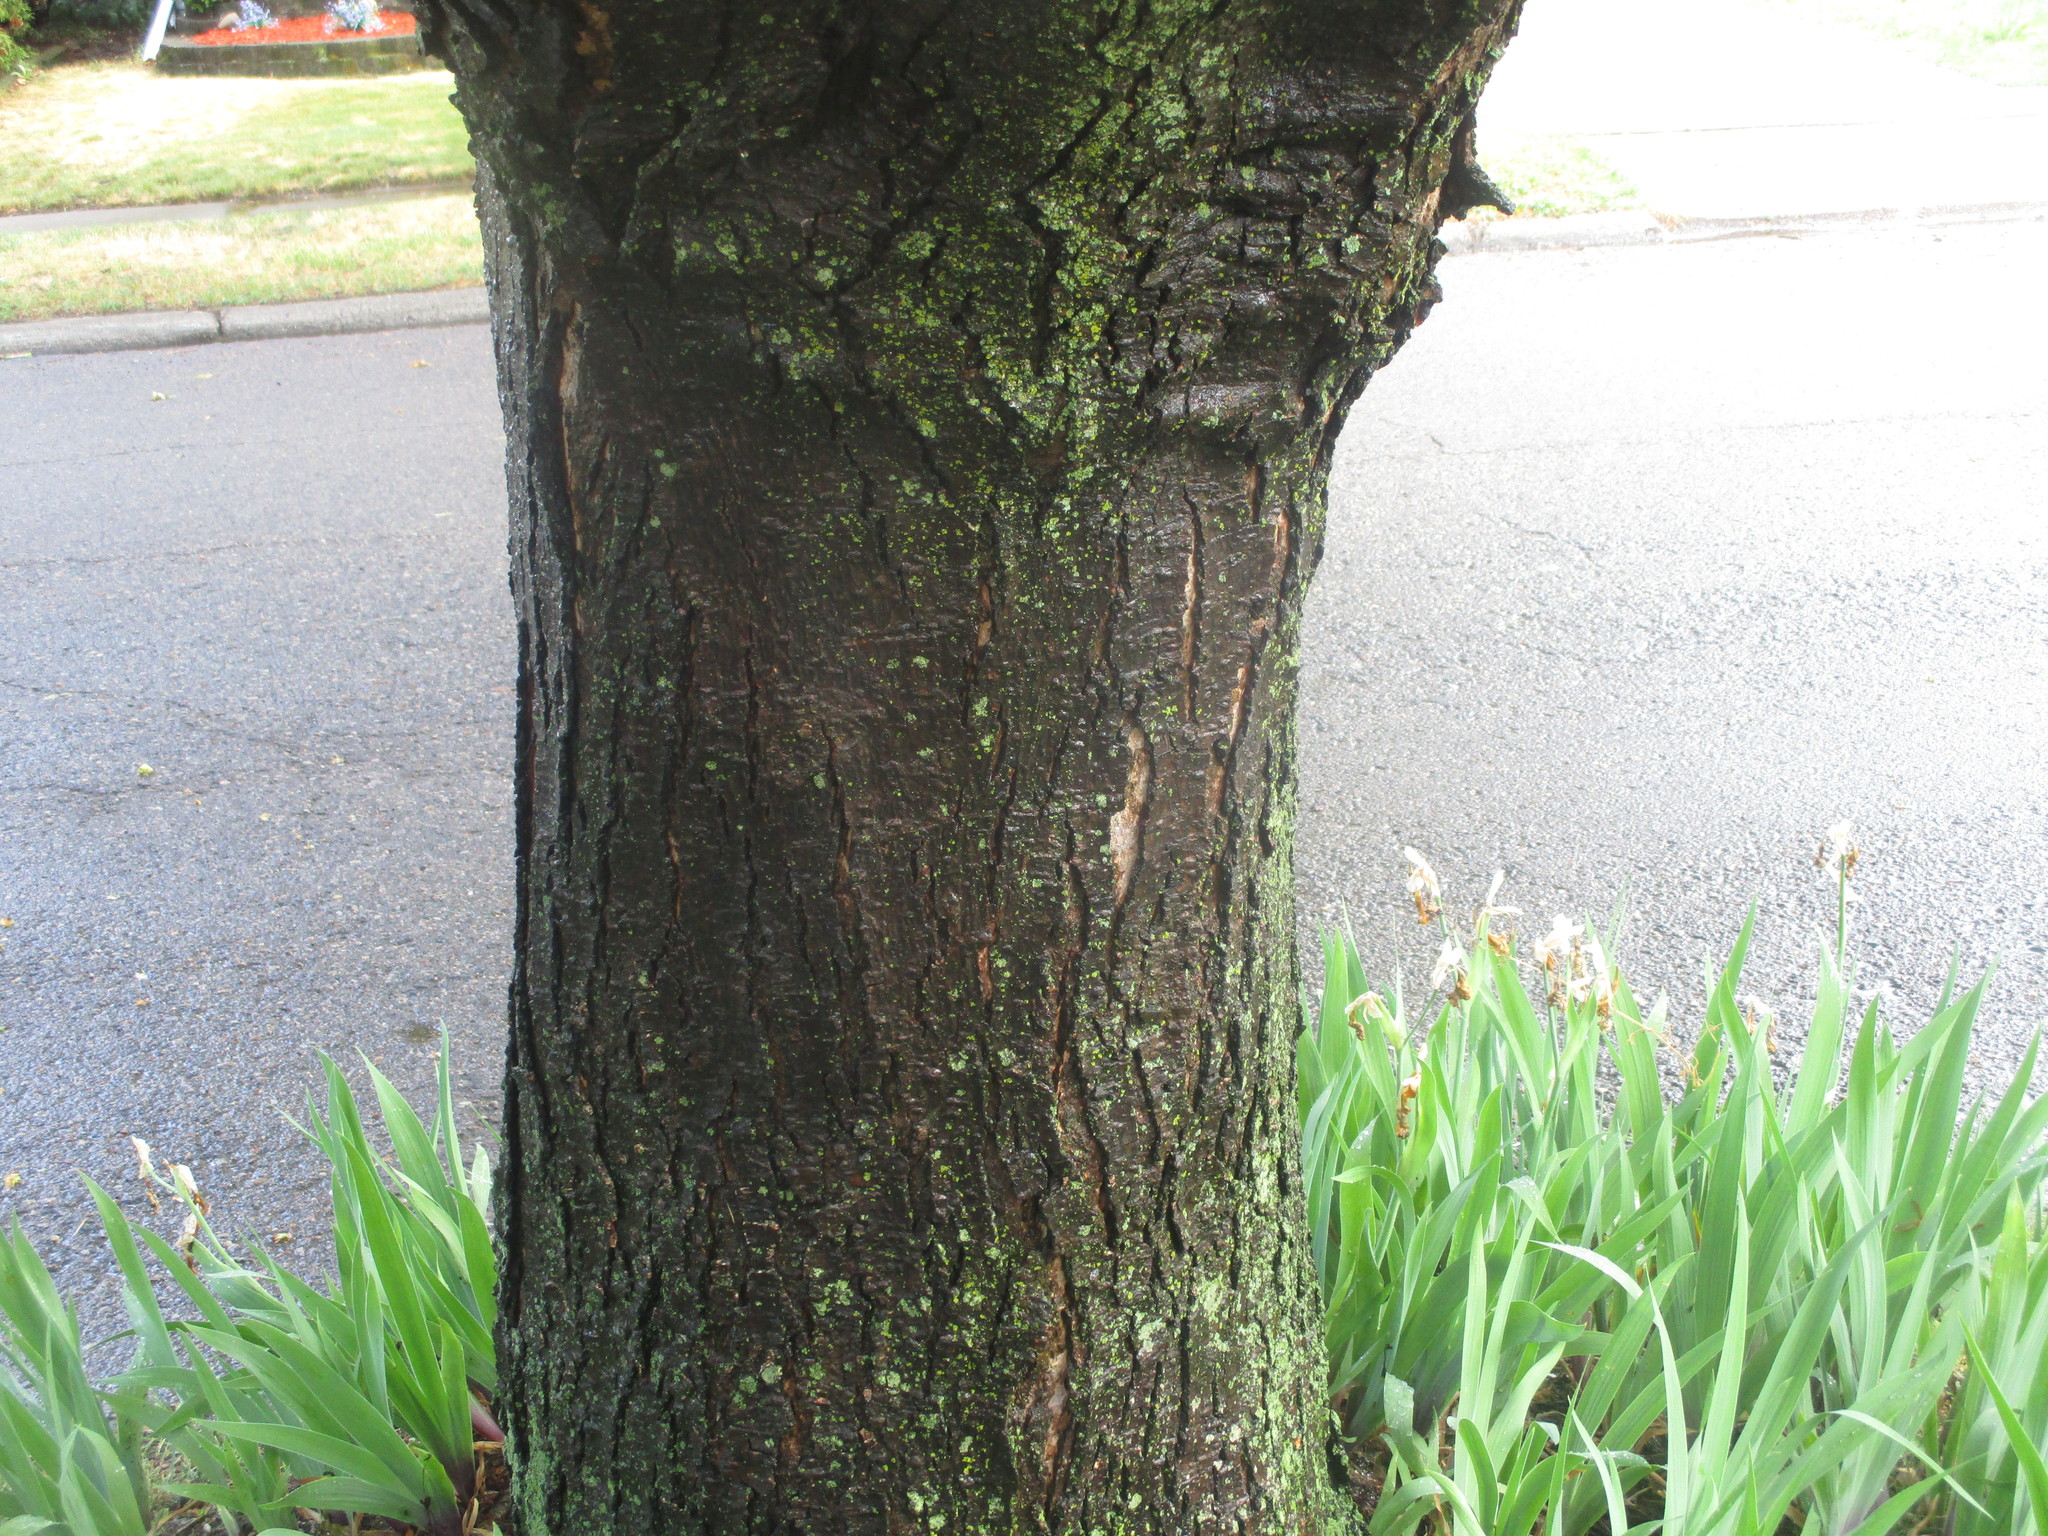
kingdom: Plantae
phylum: Tracheophyta
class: Magnoliopsida
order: Sapindales
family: Sapindaceae
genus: Acer
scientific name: Acer rubrum
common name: Red maple
